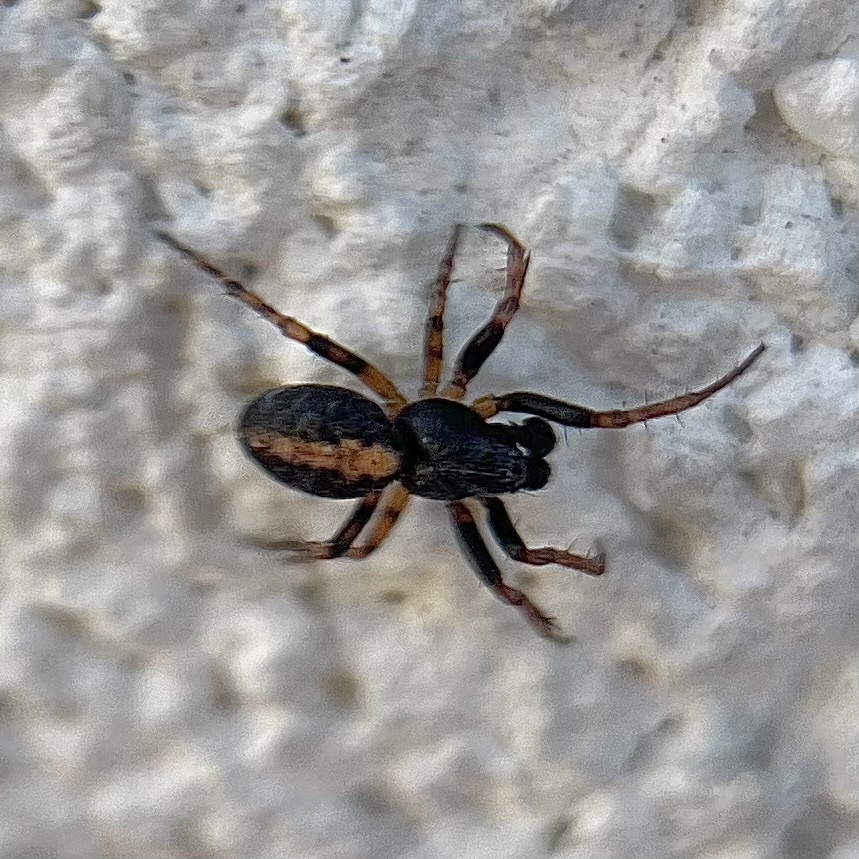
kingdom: Animalia
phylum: Arthropoda
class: Arachnida
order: Araneae
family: Araneidae
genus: Cercidia
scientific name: Cercidia prominens
